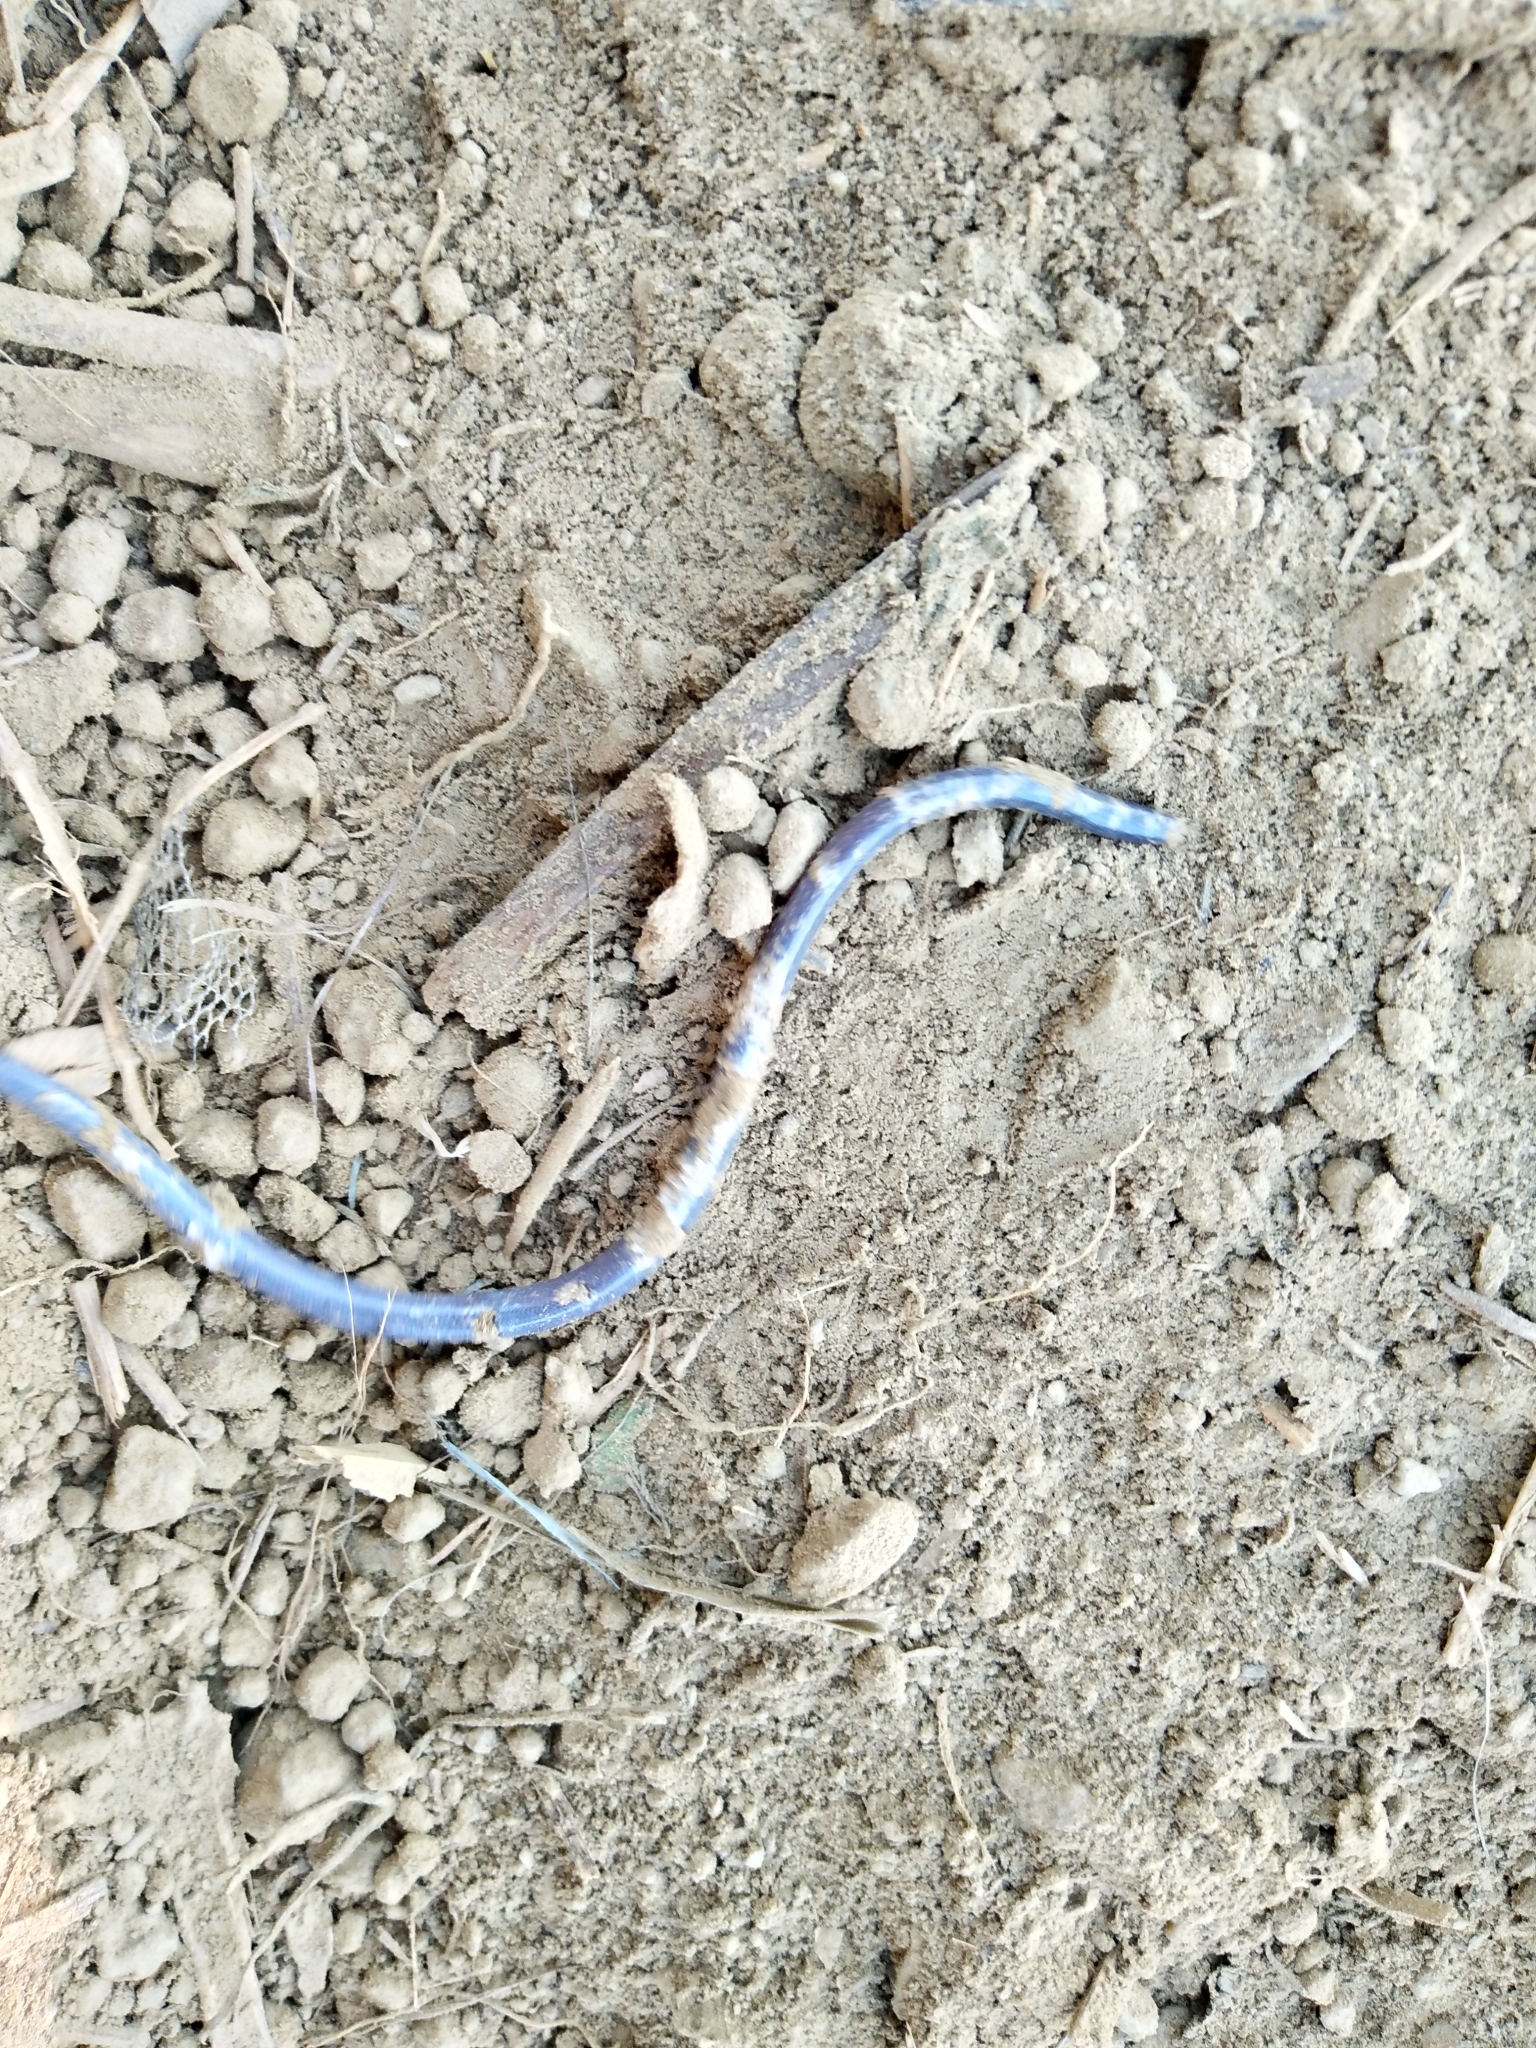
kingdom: Animalia
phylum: Chordata
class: Squamata
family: Typhlopidae
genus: Indotyphlops
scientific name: Indotyphlops braminus
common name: Brahminy blindsnake
